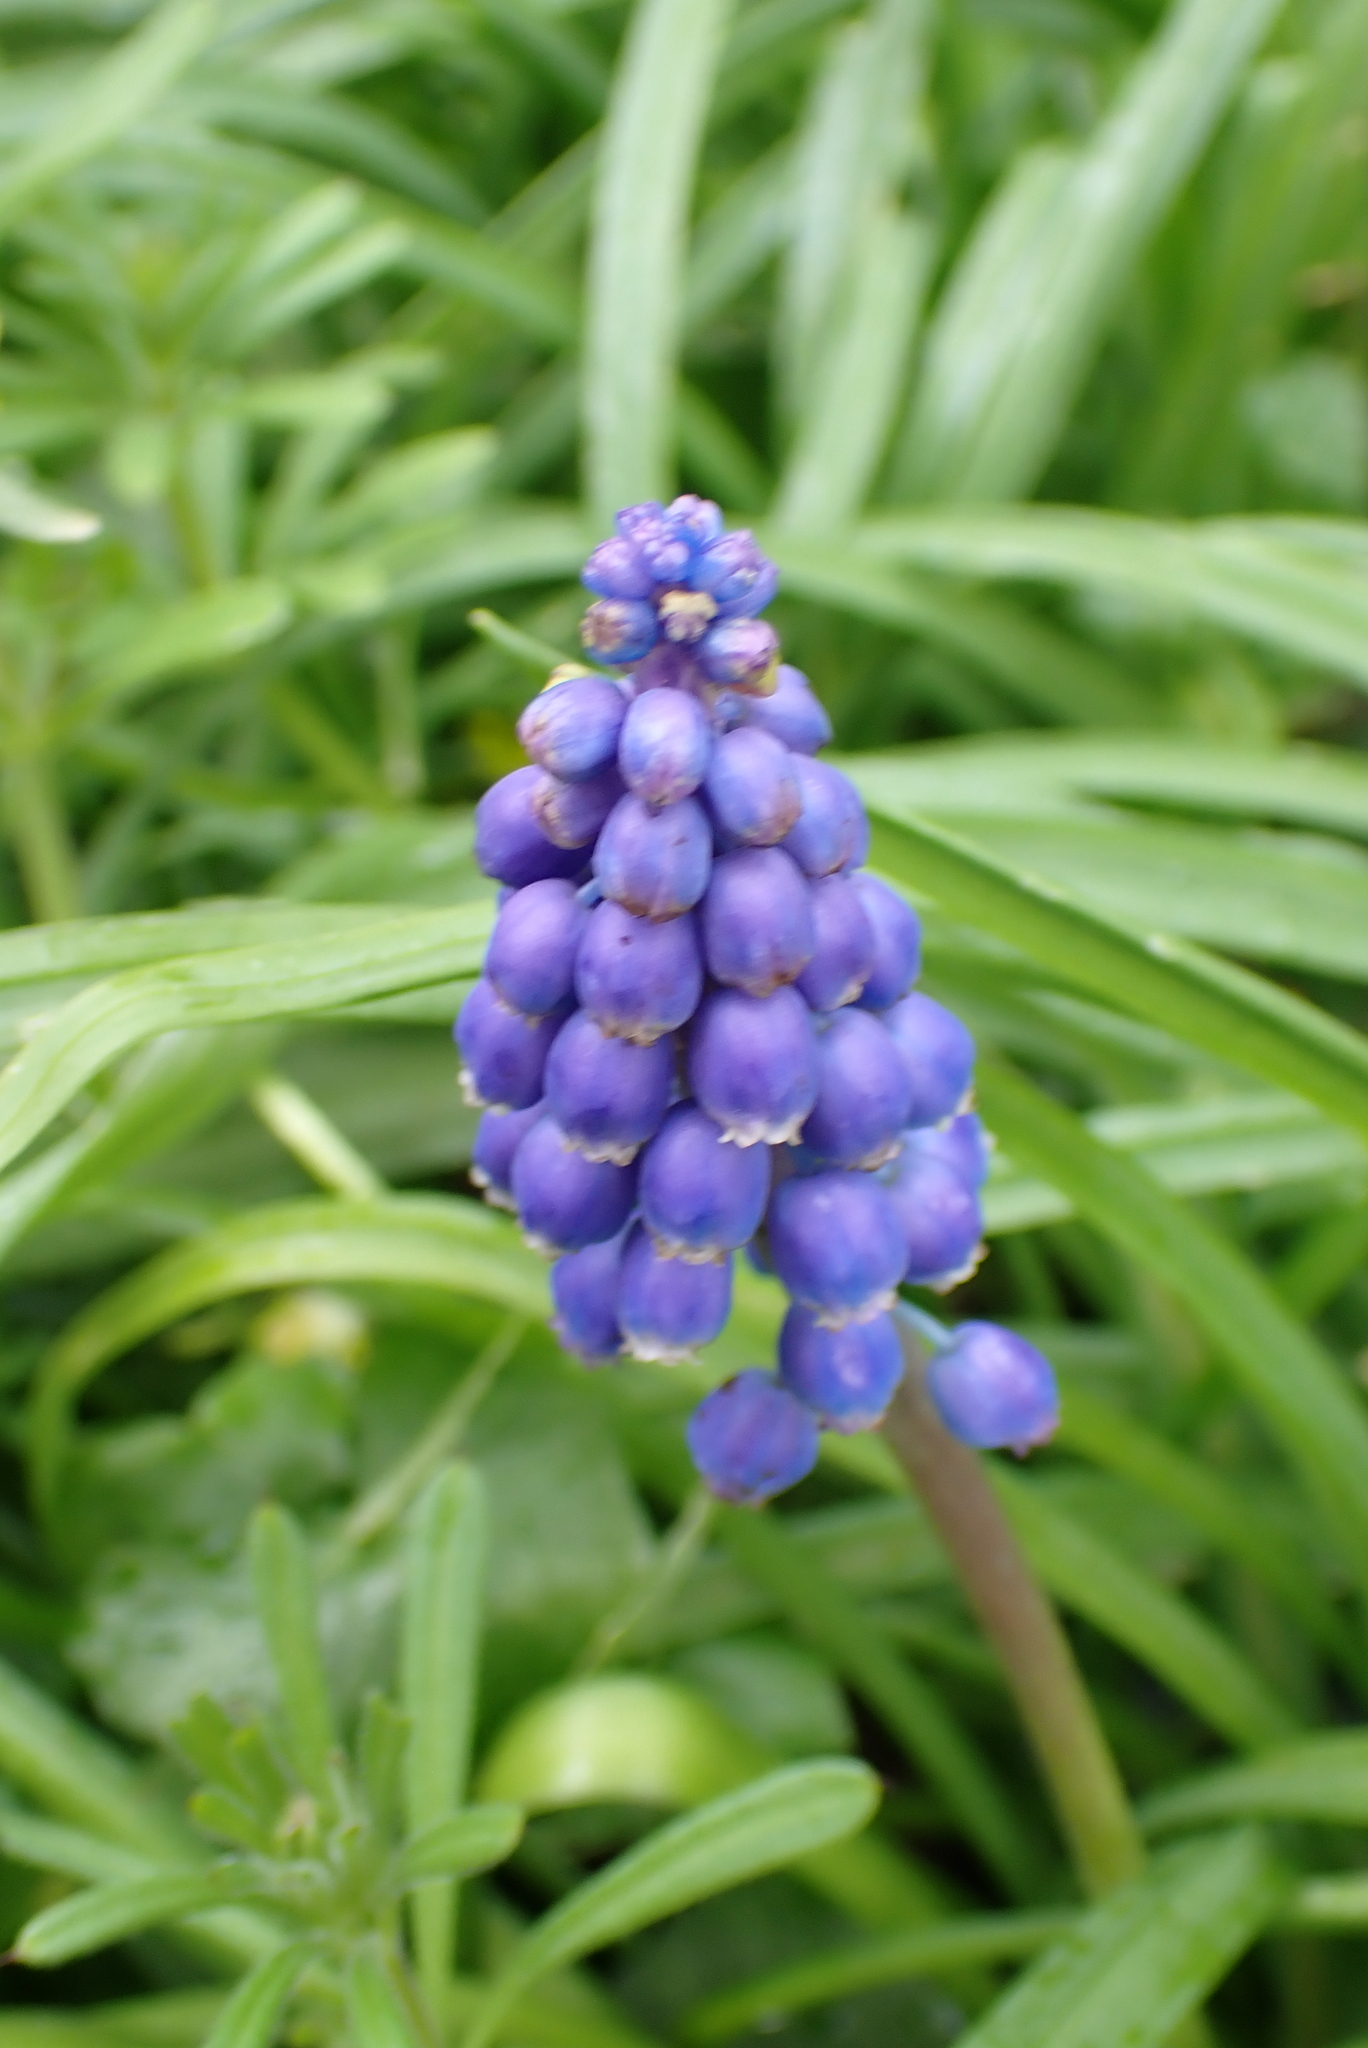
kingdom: Plantae
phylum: Tracheophyta
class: Liliopsida
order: Asparagales
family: Asparagaceae
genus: Muscari
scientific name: Muscari armeniacum
